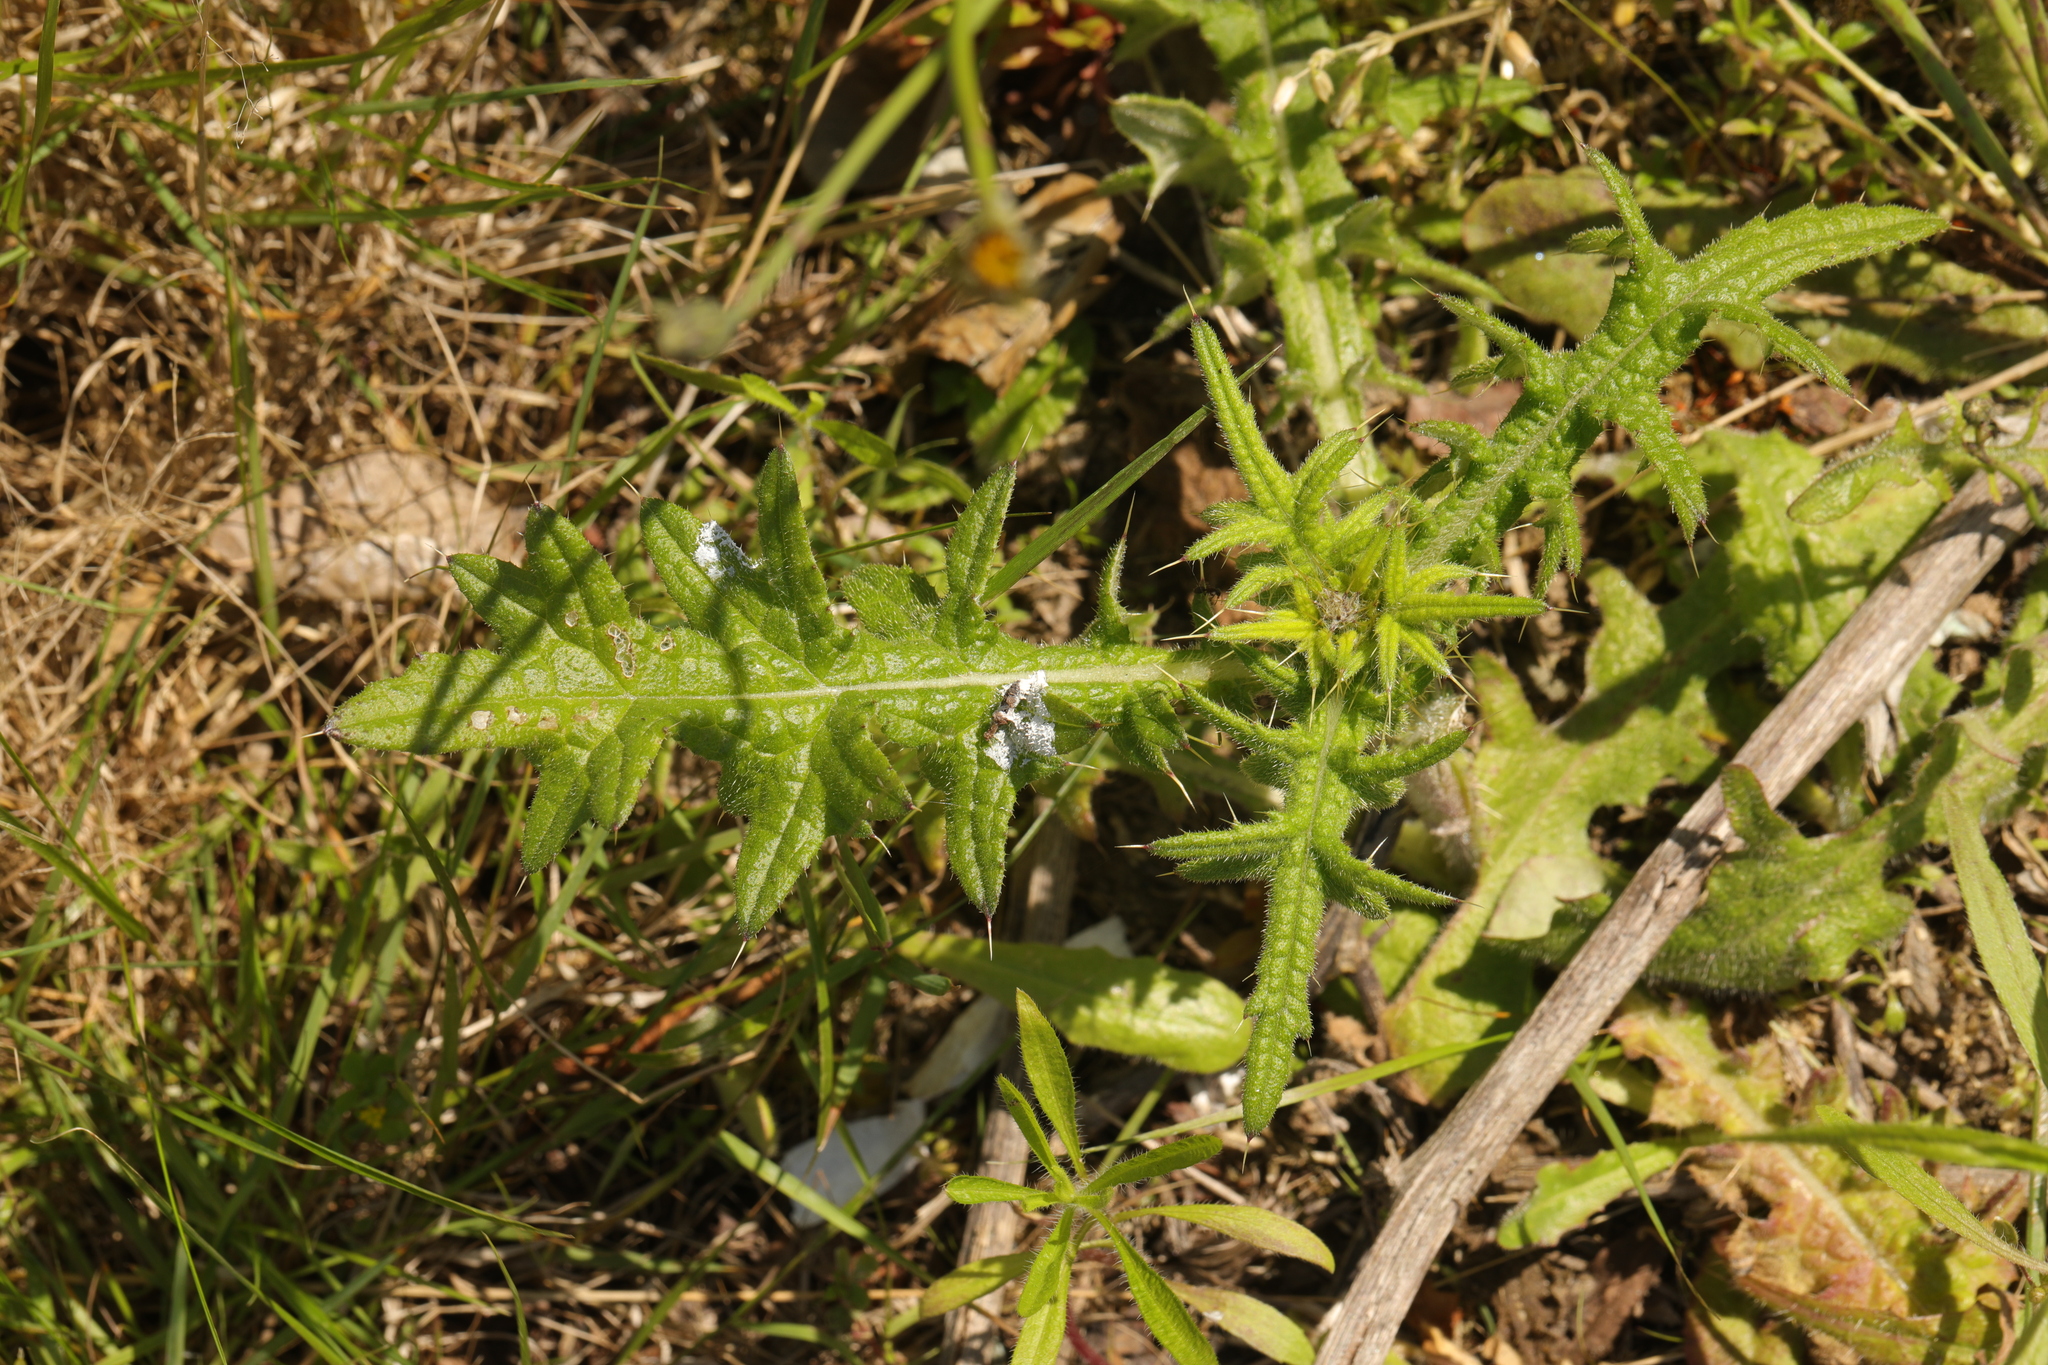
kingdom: Plantae
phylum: Tracheophyta
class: Magnoliopsida
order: Asterales
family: Asteraceae
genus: Cirsium
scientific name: Cirsium vulgare
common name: Bull thistle
